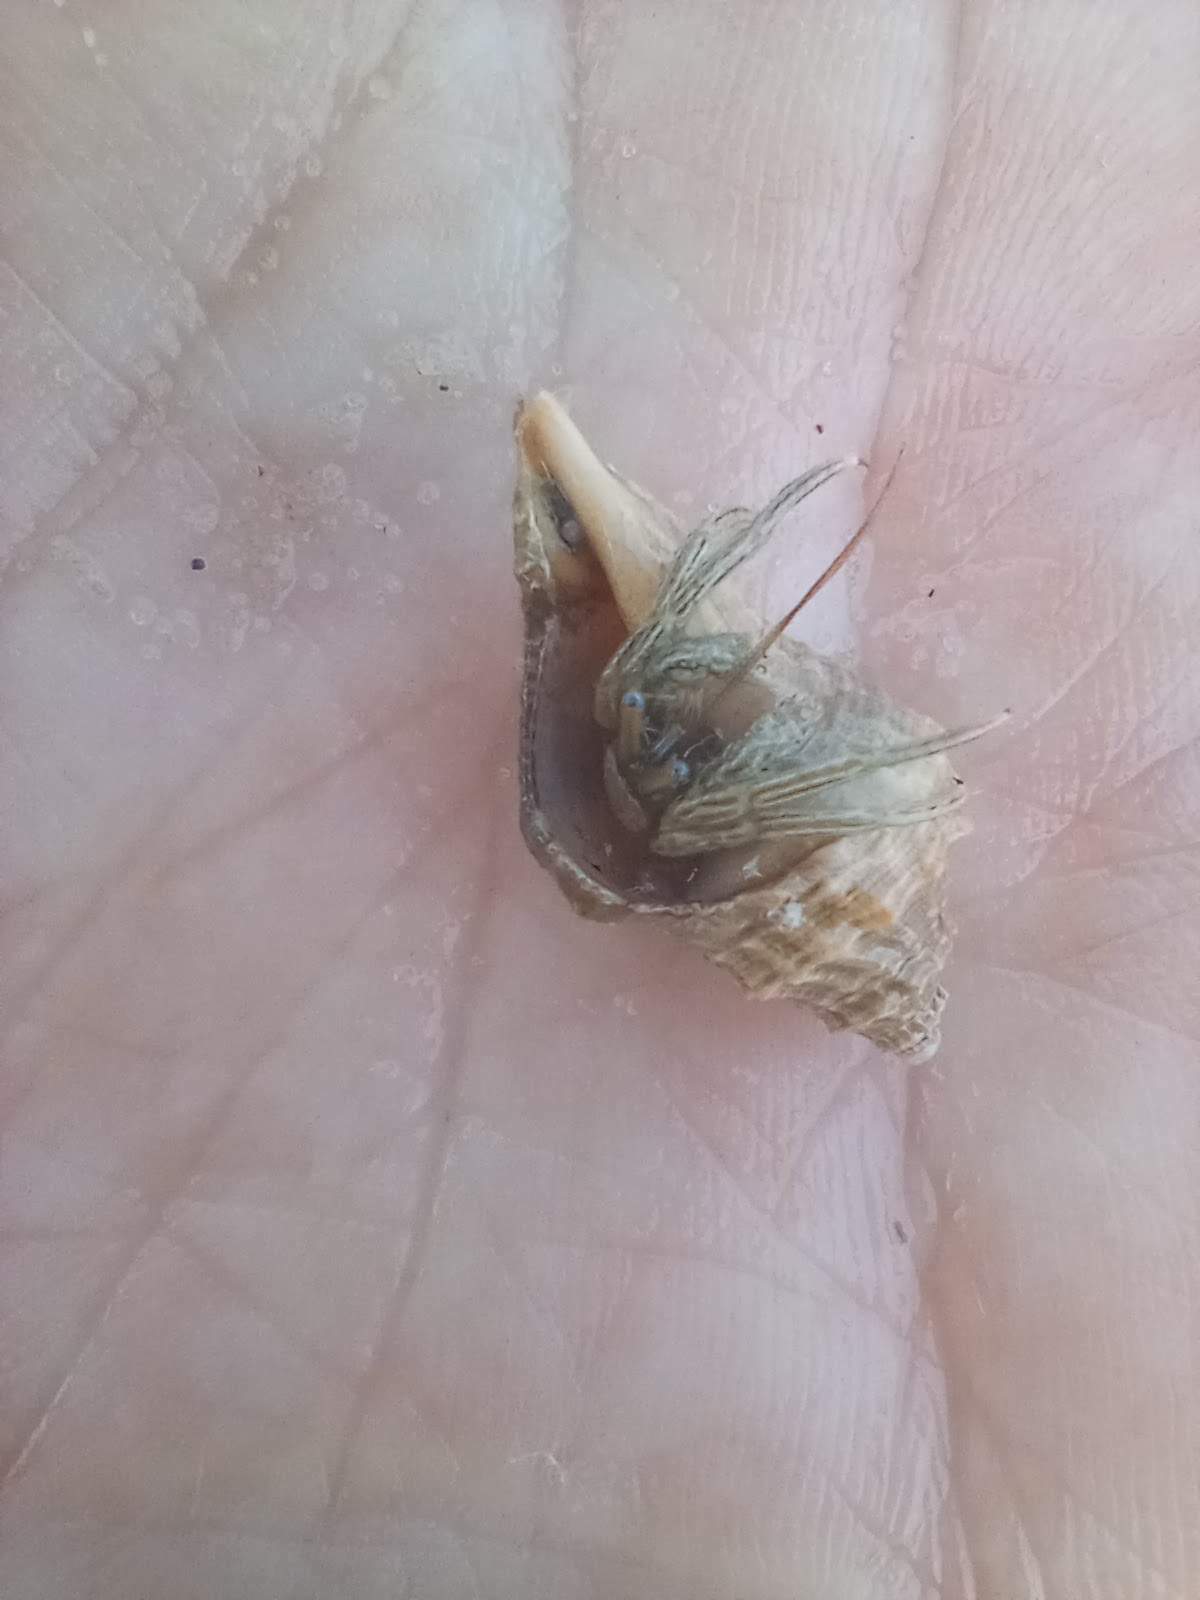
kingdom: Animalia
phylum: Arthropoda
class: Malacostraca
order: Decapoda
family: Diogenidae
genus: Clibanarius
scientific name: Clibanarius vittatus
